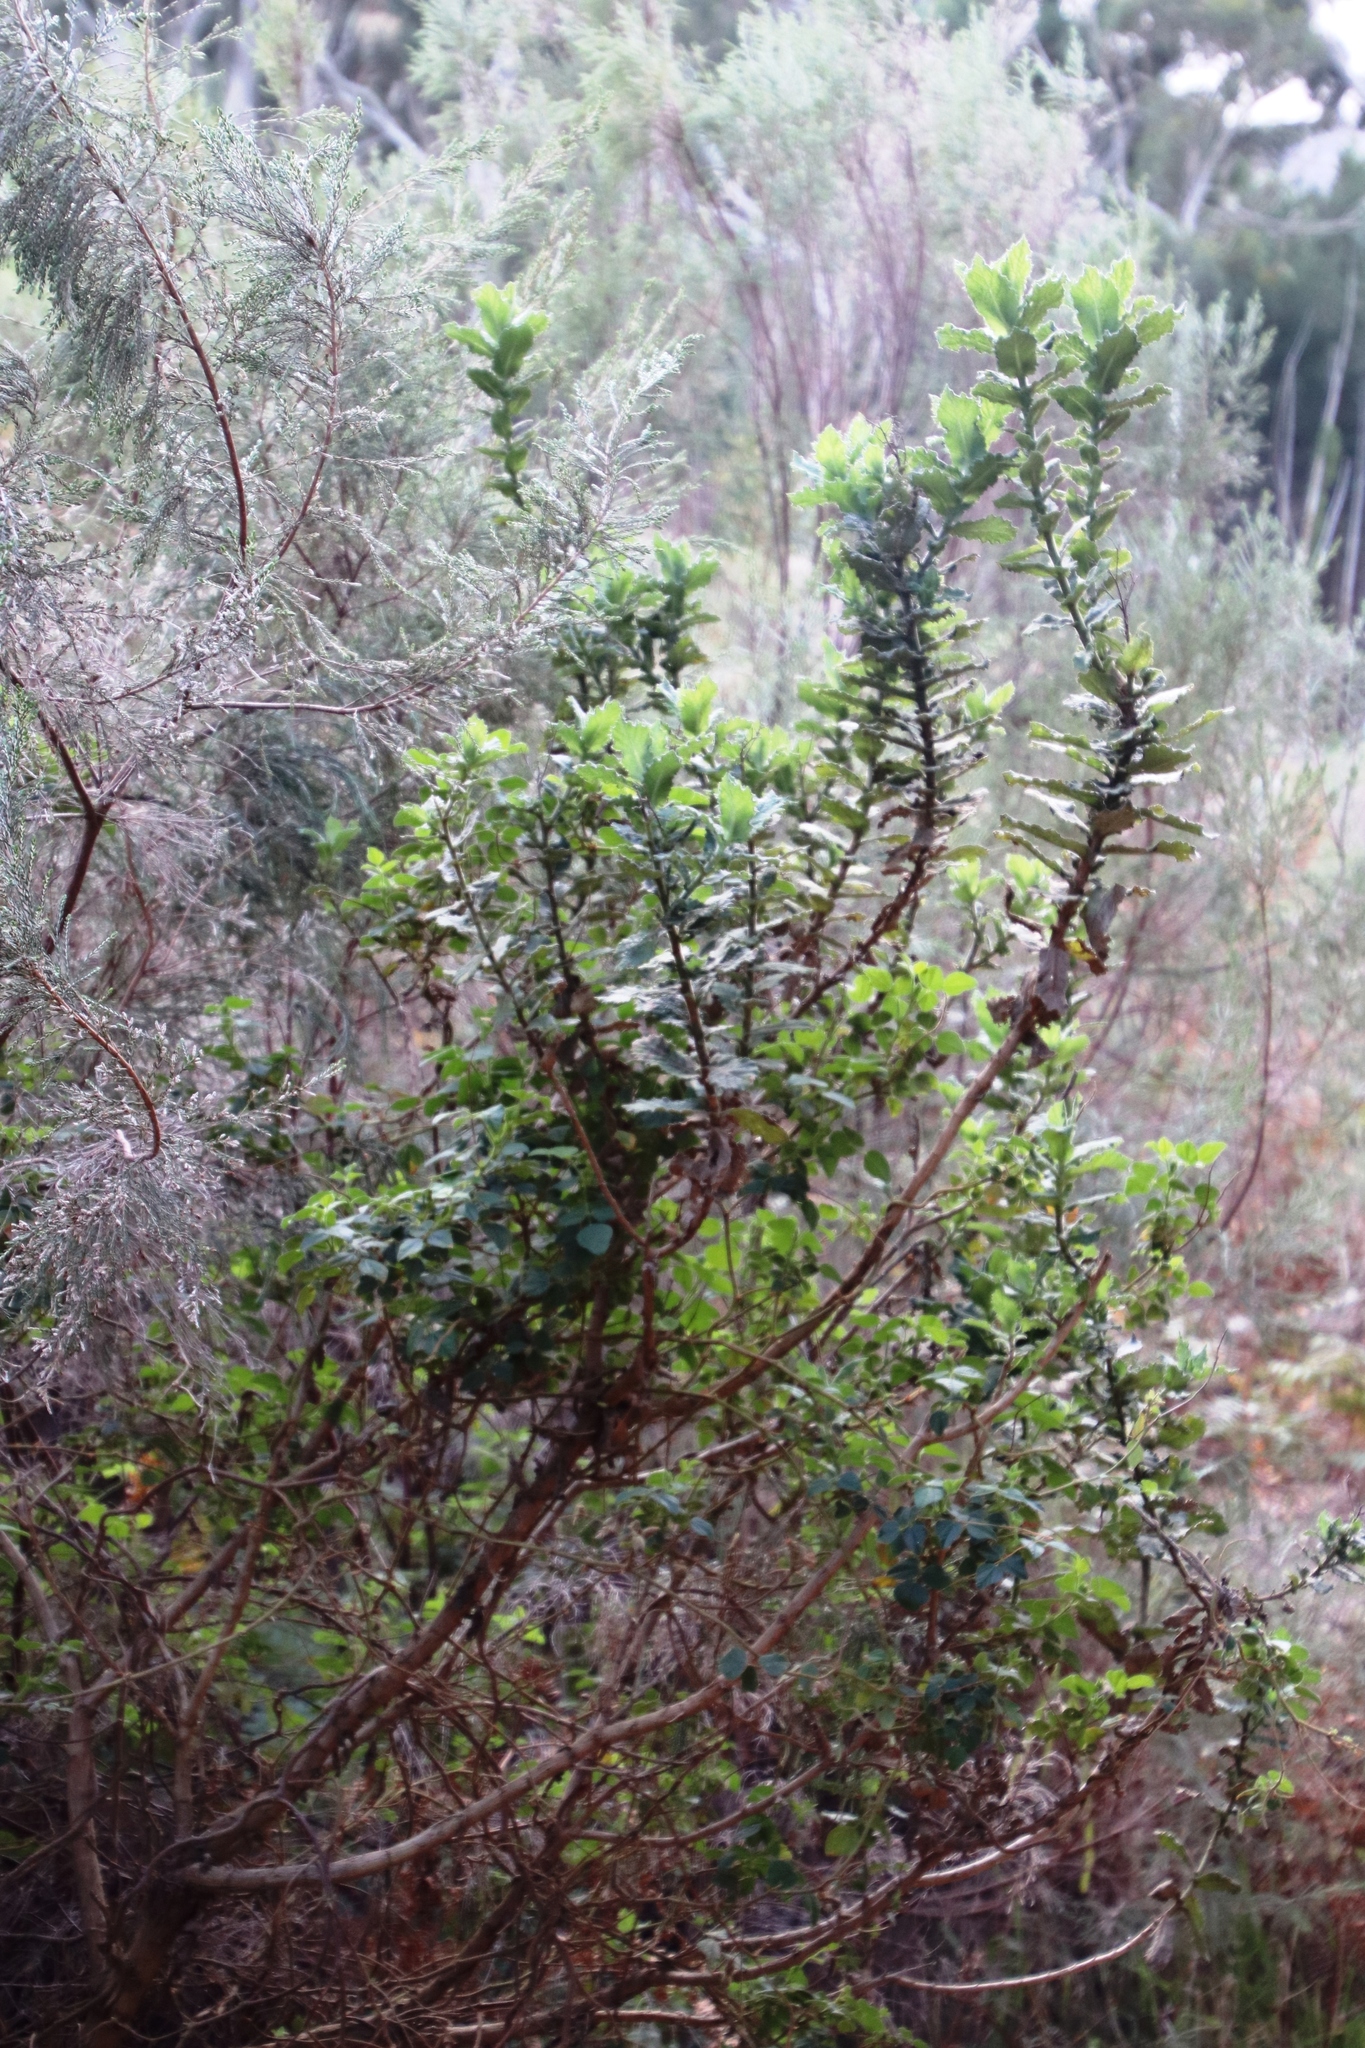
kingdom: Plantae
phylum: Tracheophyta
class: Magnoliopsida
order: Asterales
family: Asteraceae
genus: Senecio
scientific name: Senecio rigidus
